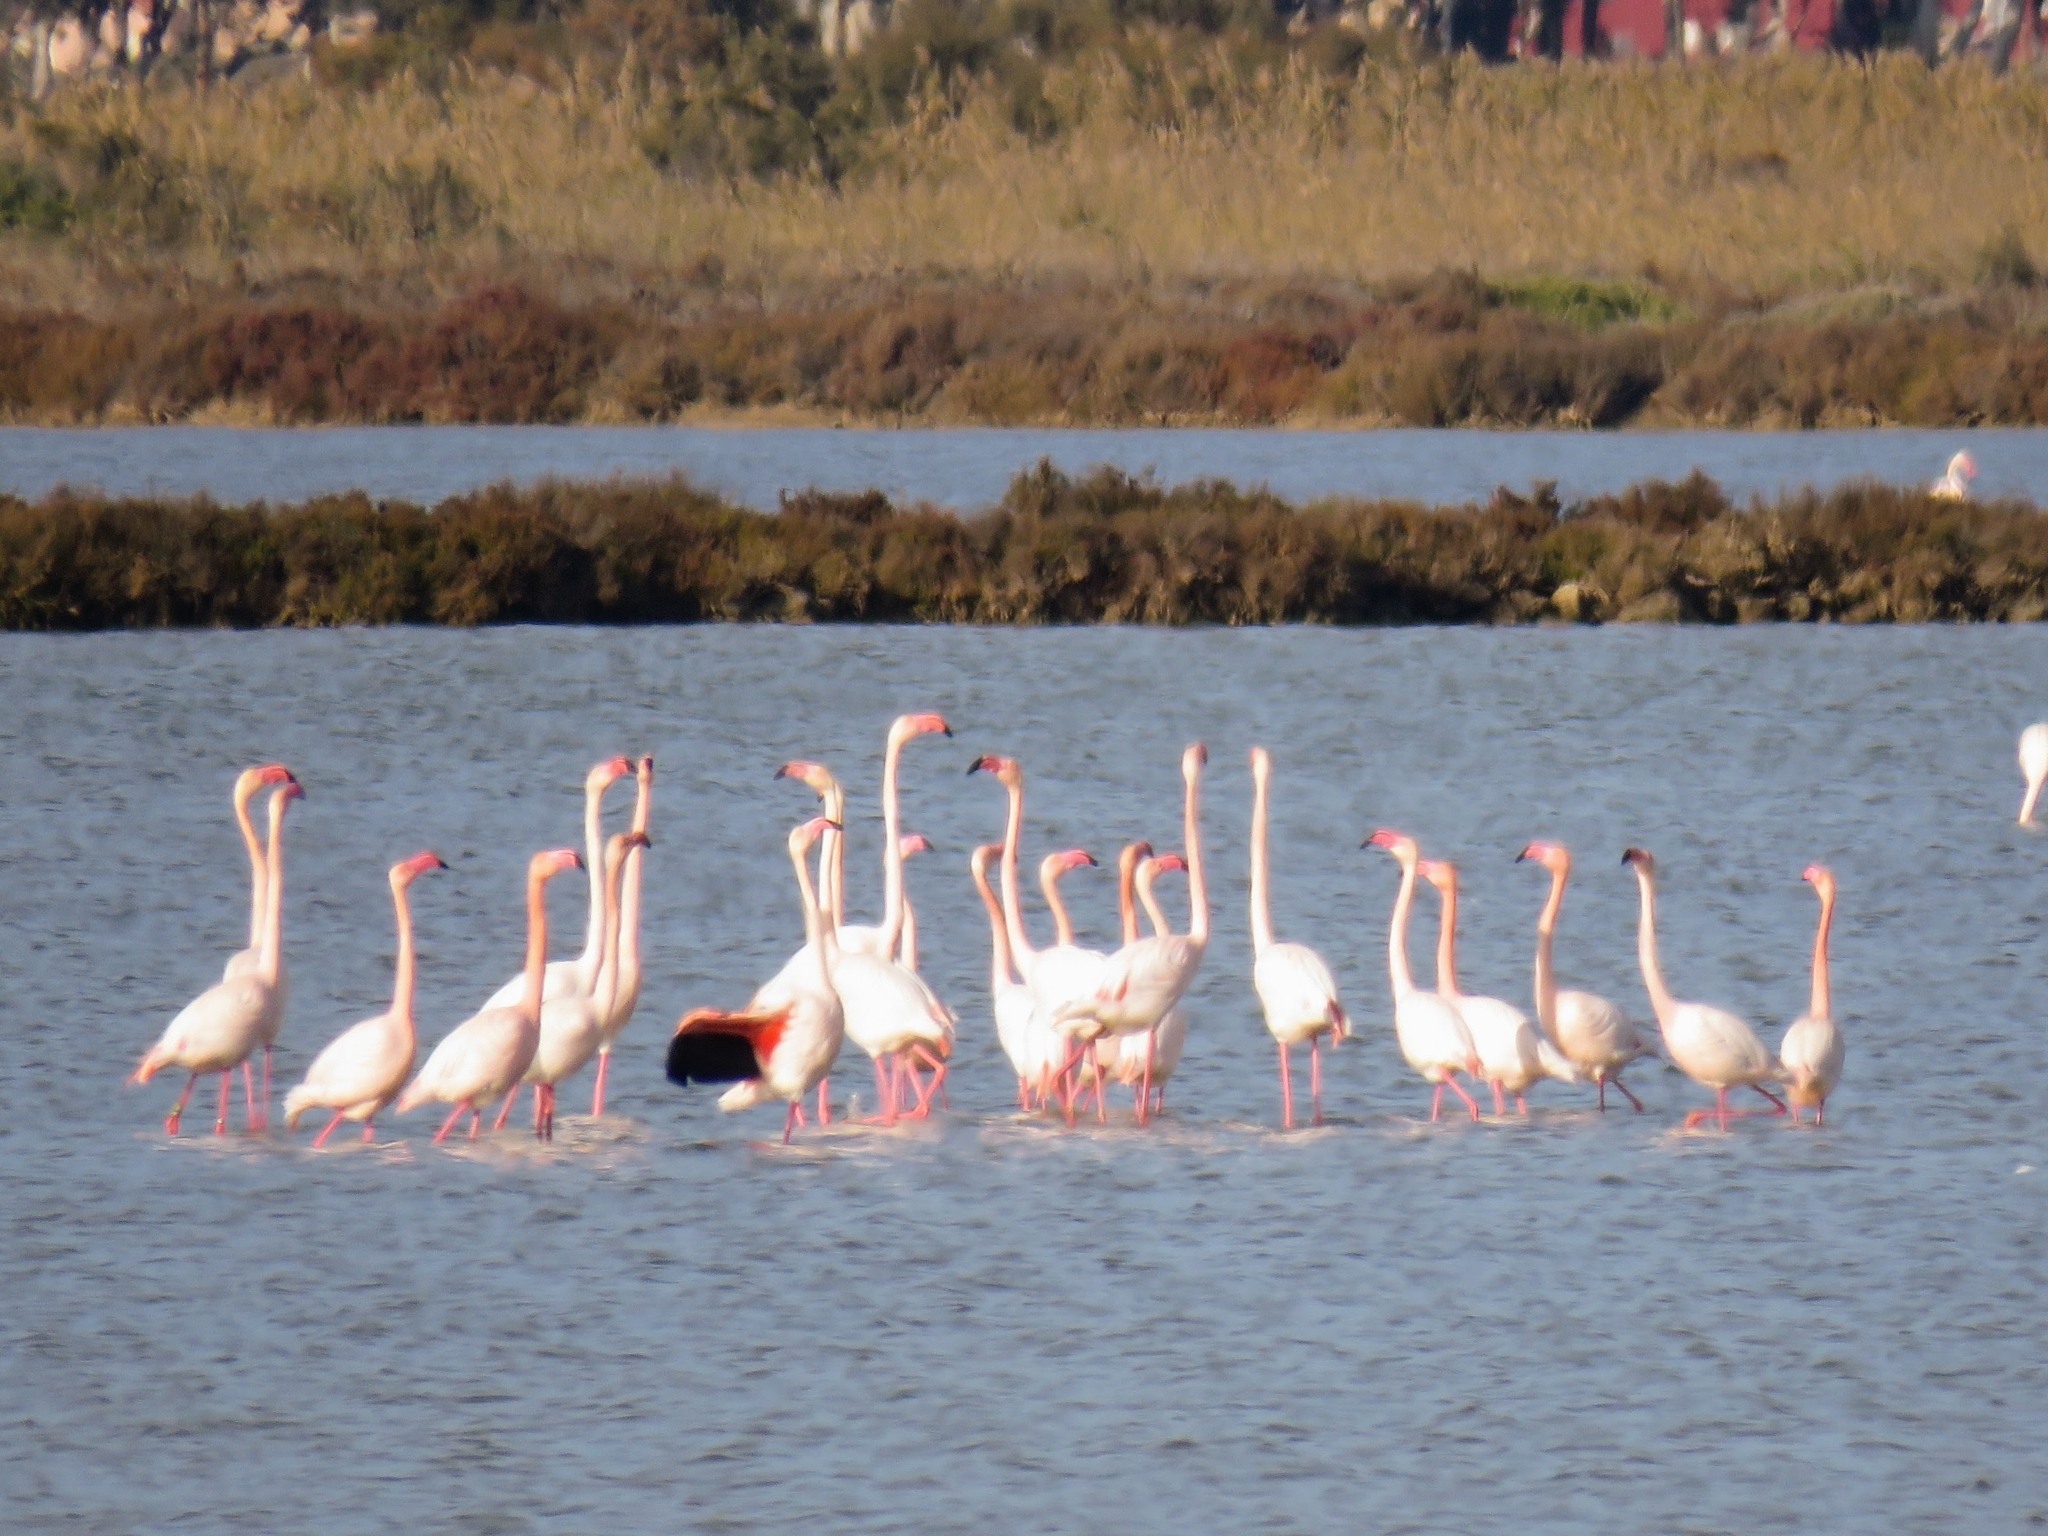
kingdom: Animalia
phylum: Chordata
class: Aves
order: Phoenicopteriformes
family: Phoenicopteridae
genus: Phoenicopterus
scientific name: Phoenicopterus roseus
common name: Greater flamingo
